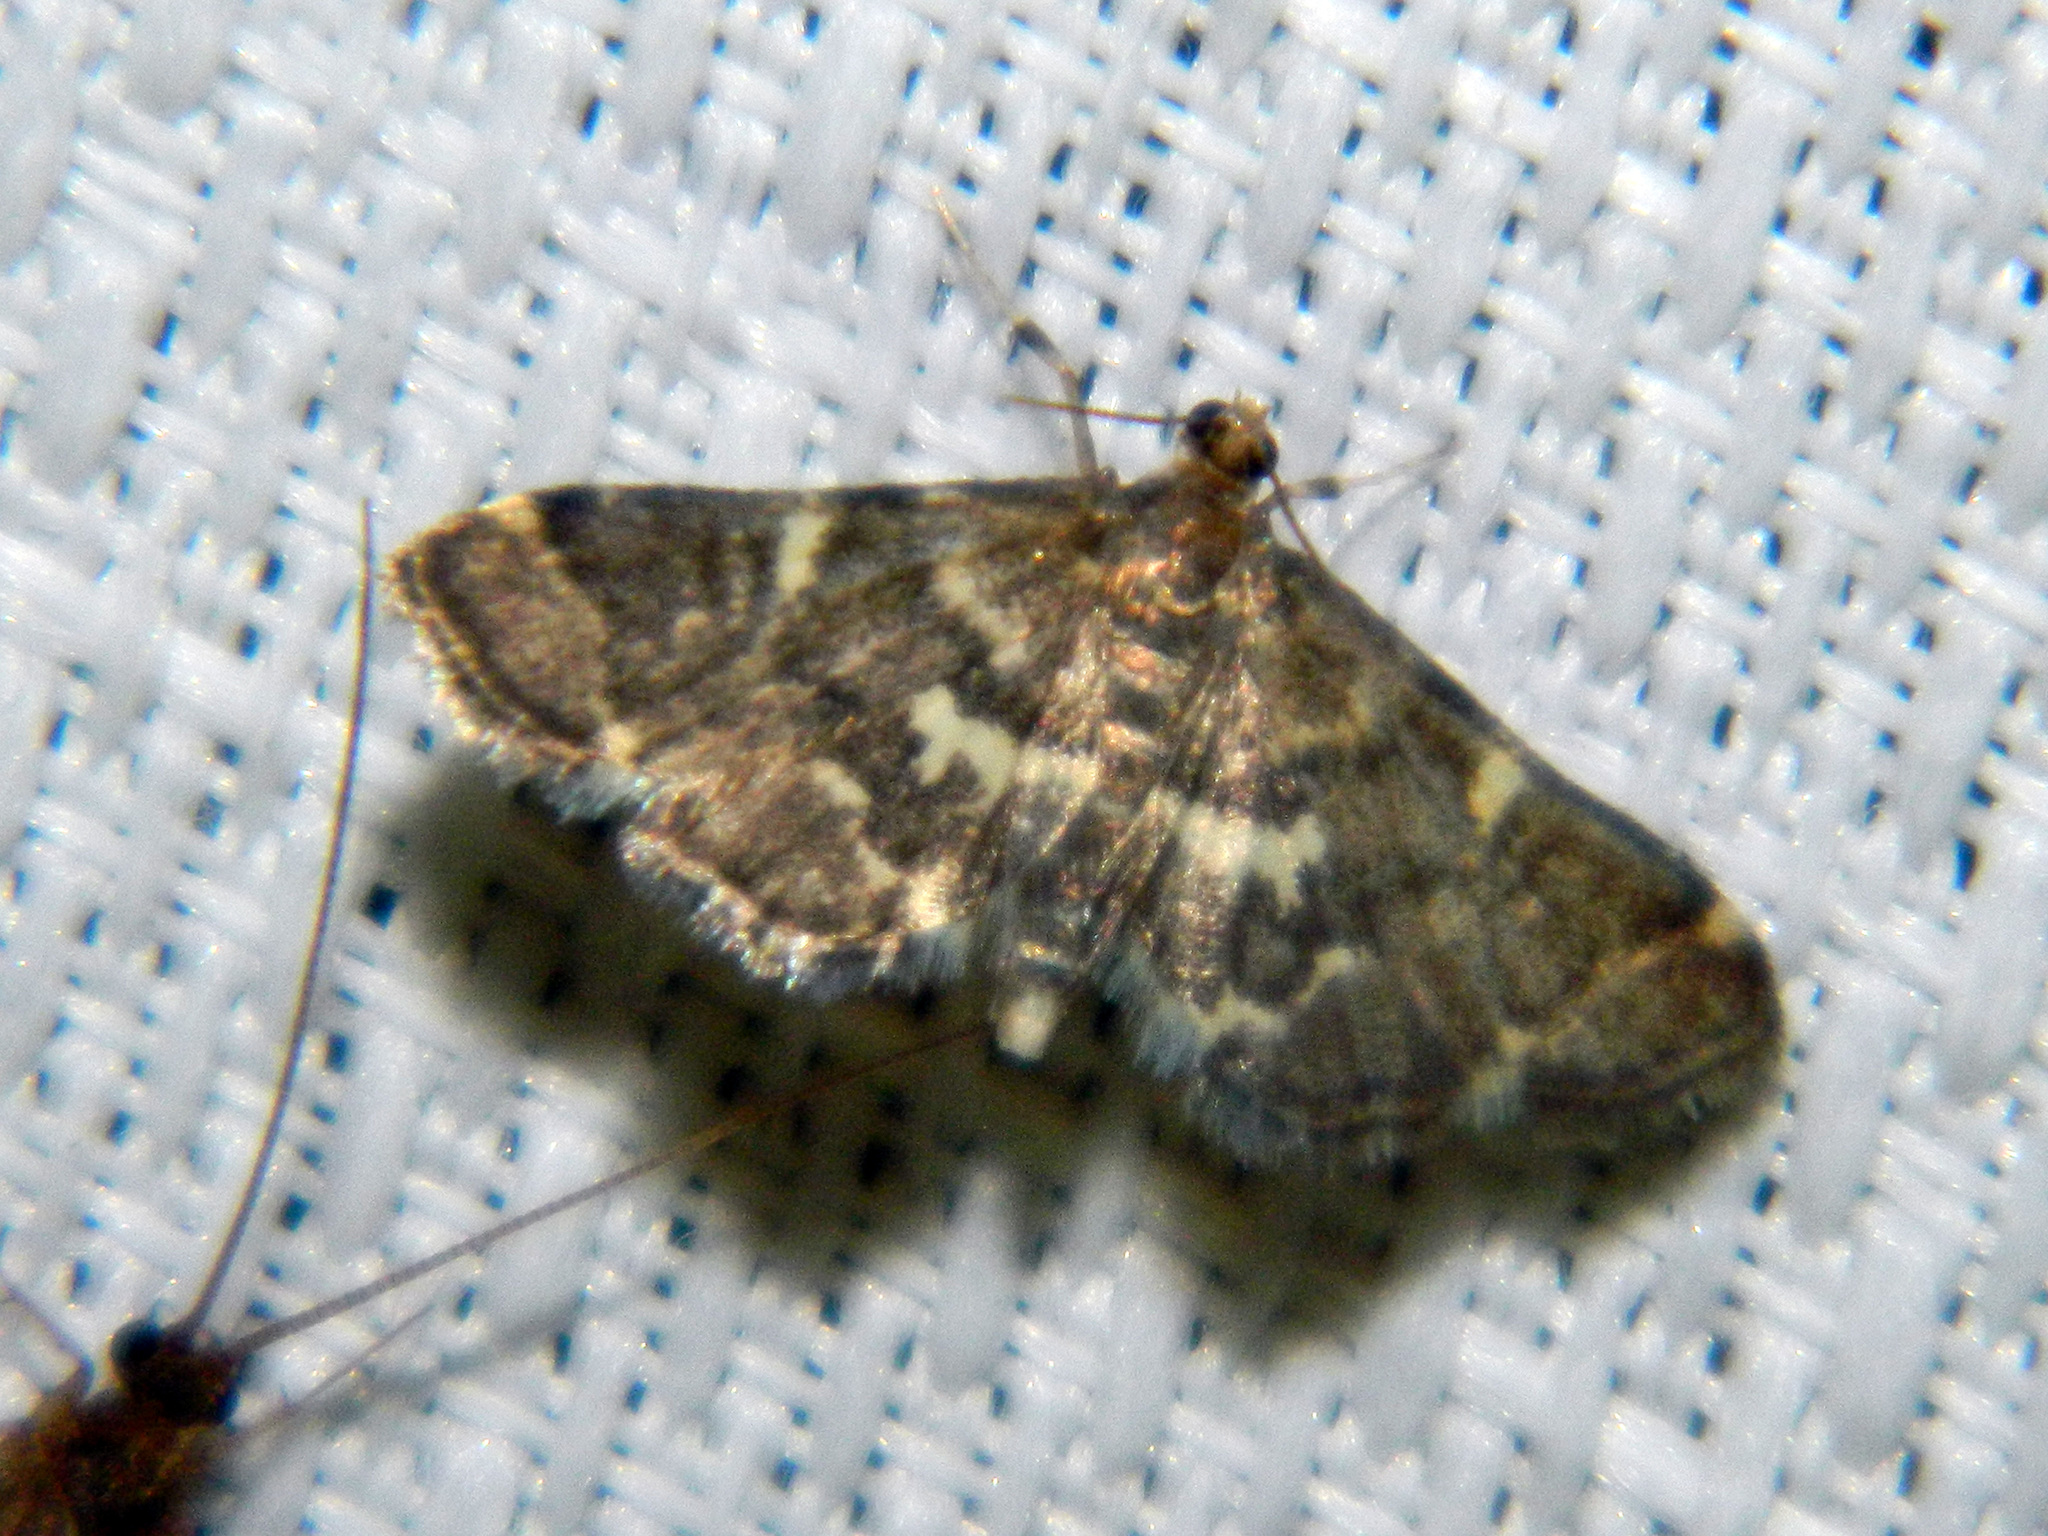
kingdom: Animalia
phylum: Arthropoda
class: Insecta
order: Lepidoptera
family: Crambidae
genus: Anageshna
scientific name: Anageshna primordialis
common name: Yellow-spotted webworm moth
